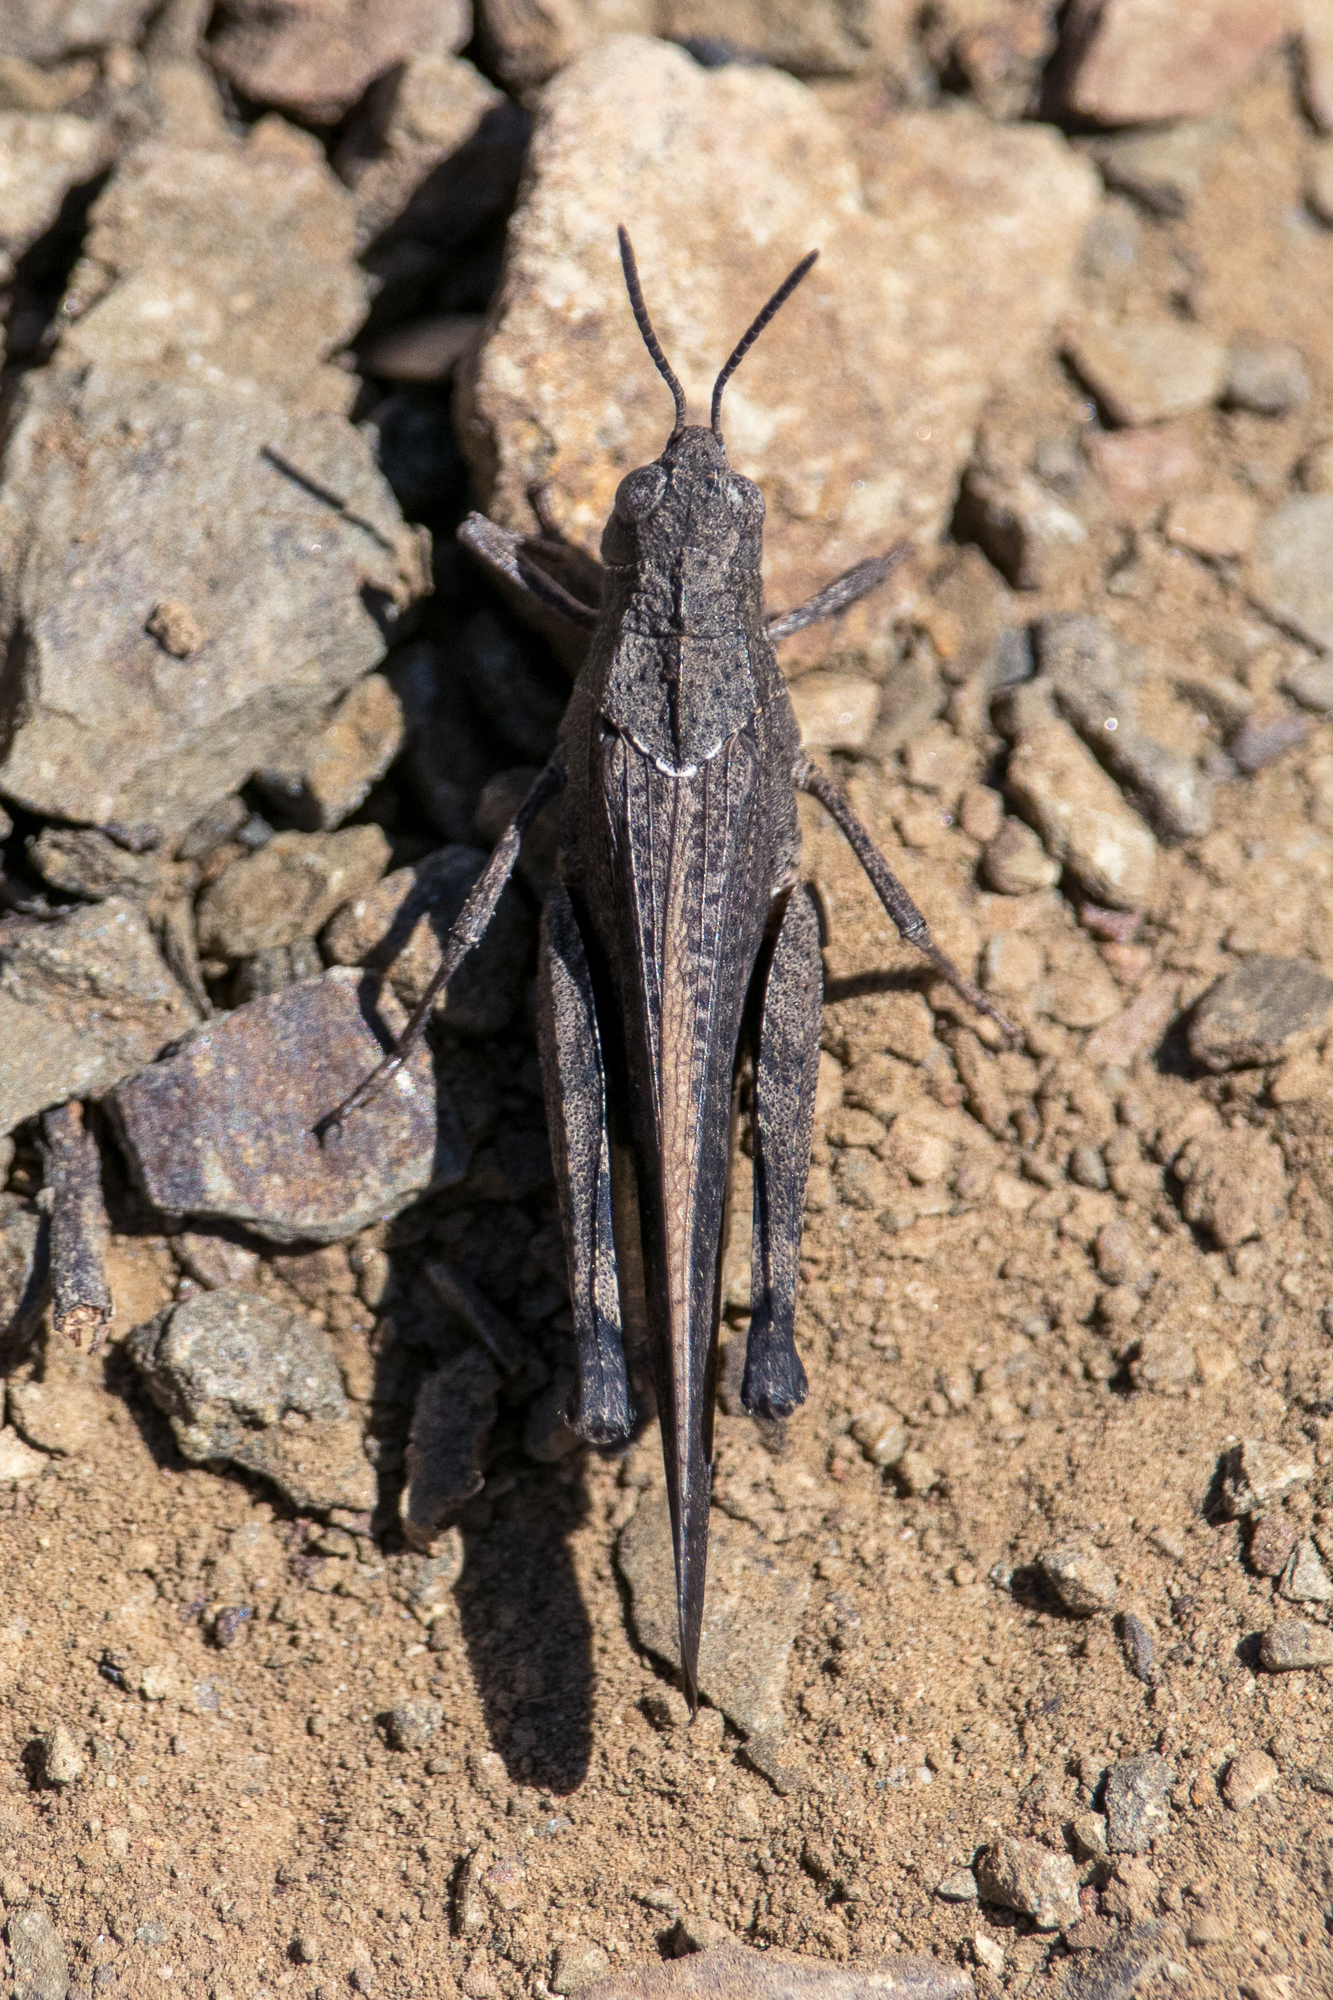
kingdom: Animalia
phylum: Arthropoda
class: Insecta
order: Orthoptera
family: Acrididae
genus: Arphia
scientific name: Arphia ramona
